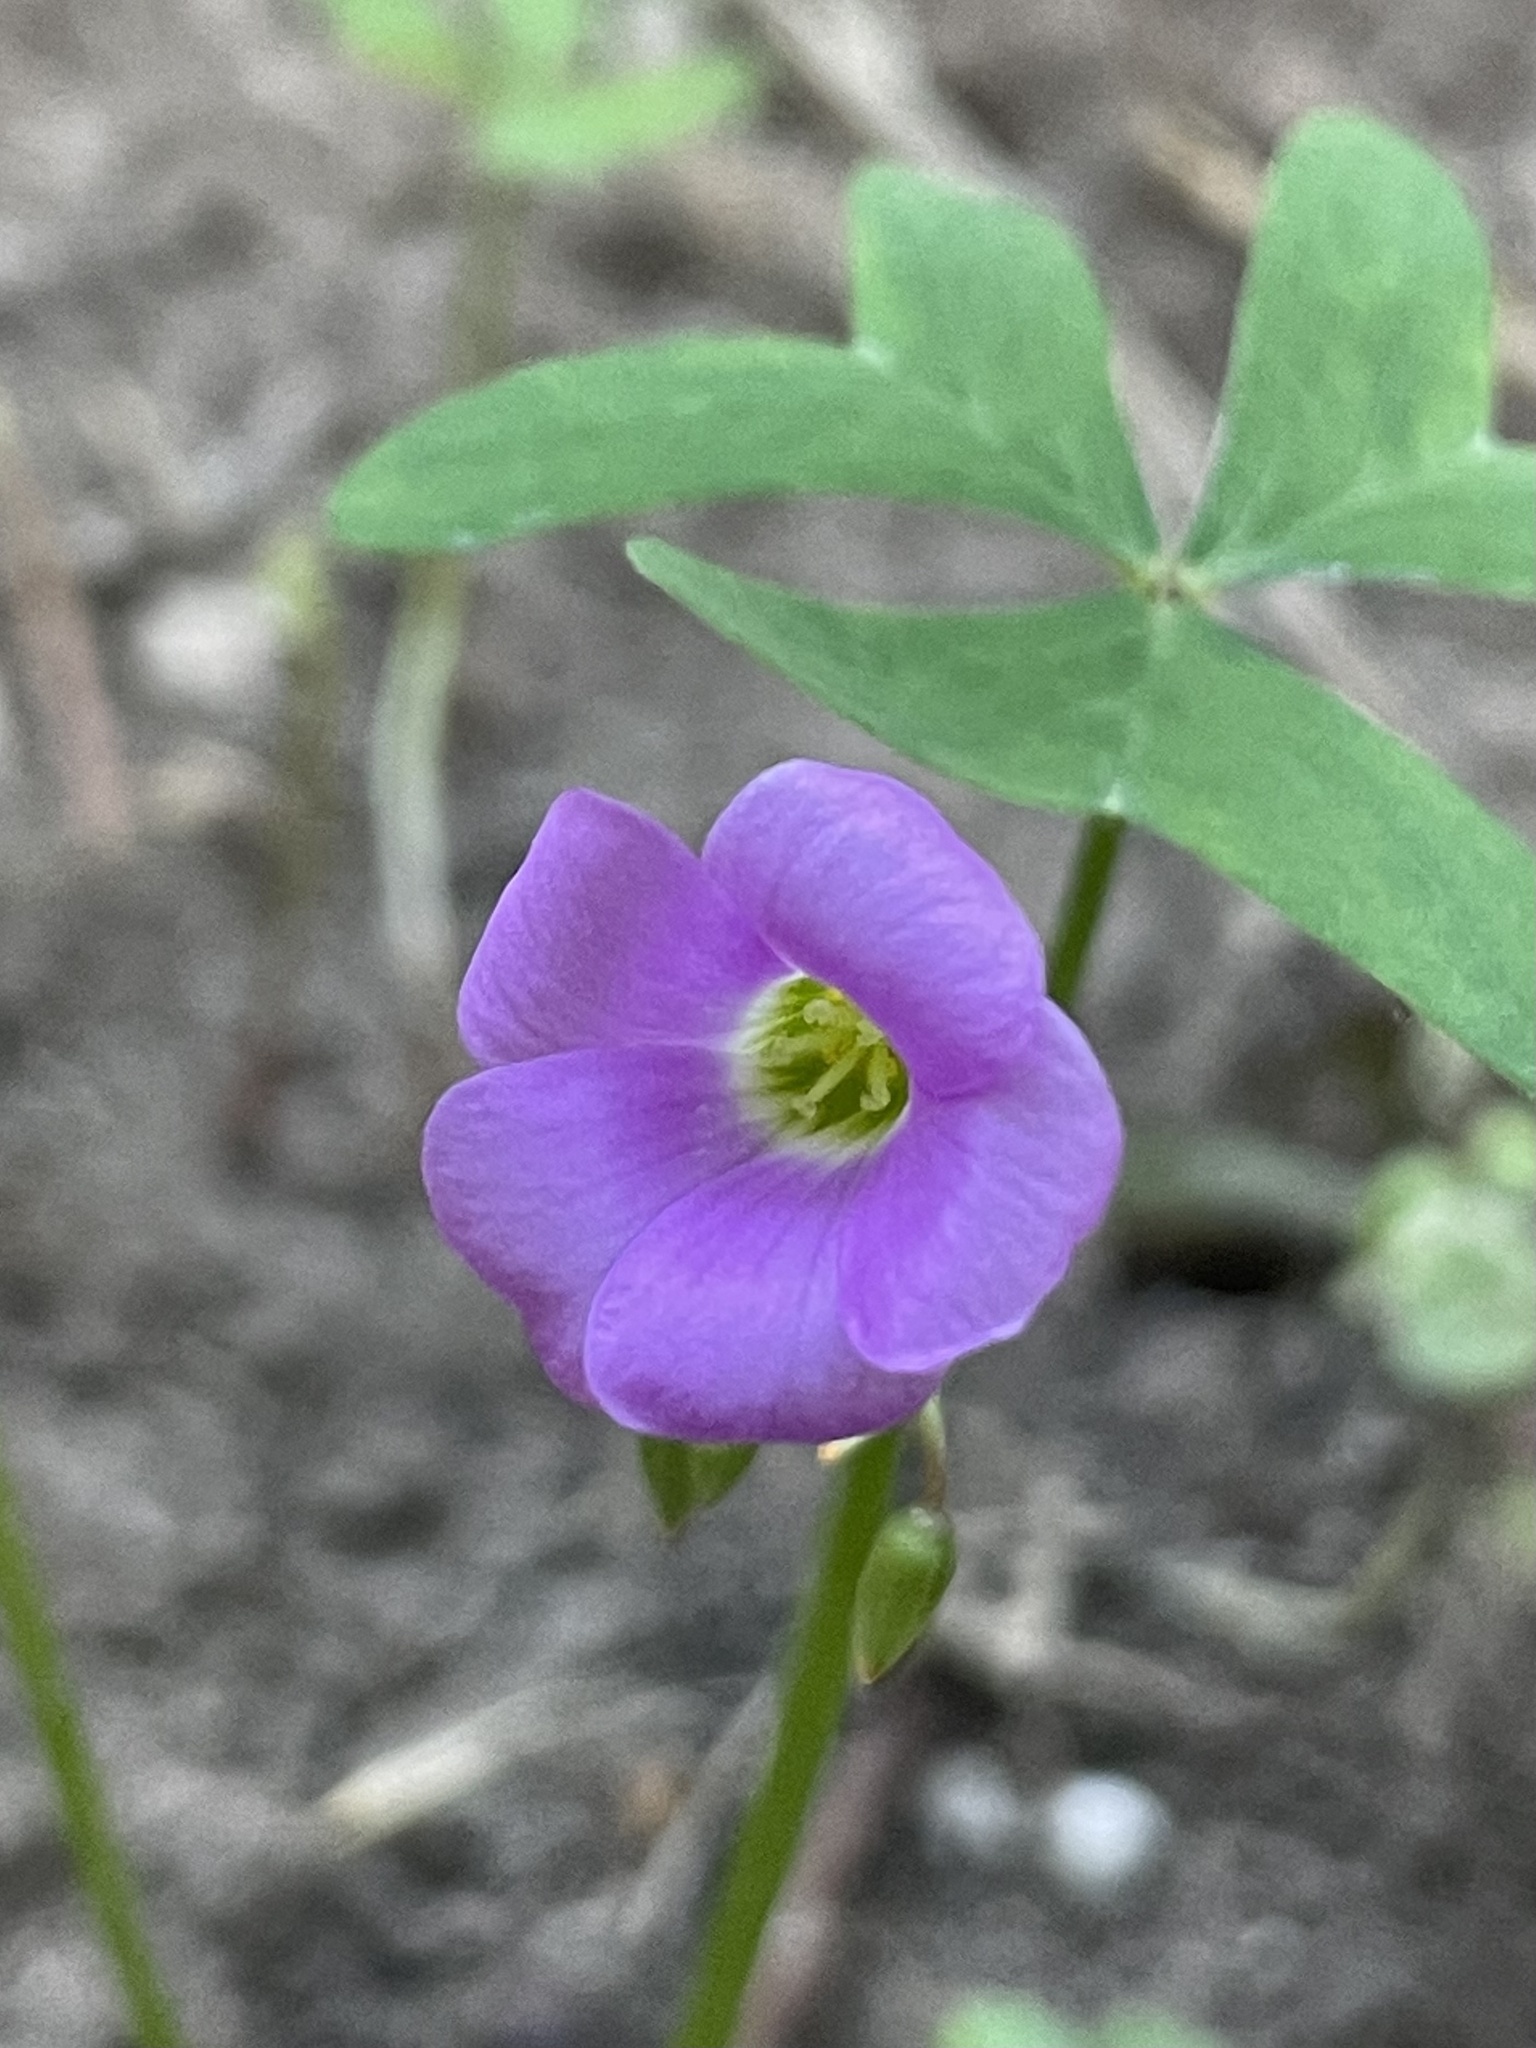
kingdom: Plantae
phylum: Tracheophyta
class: Magnoliopsida
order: Oxalidales
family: Oxalidaceae
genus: Oxalis
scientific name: Oxalis drummondii
